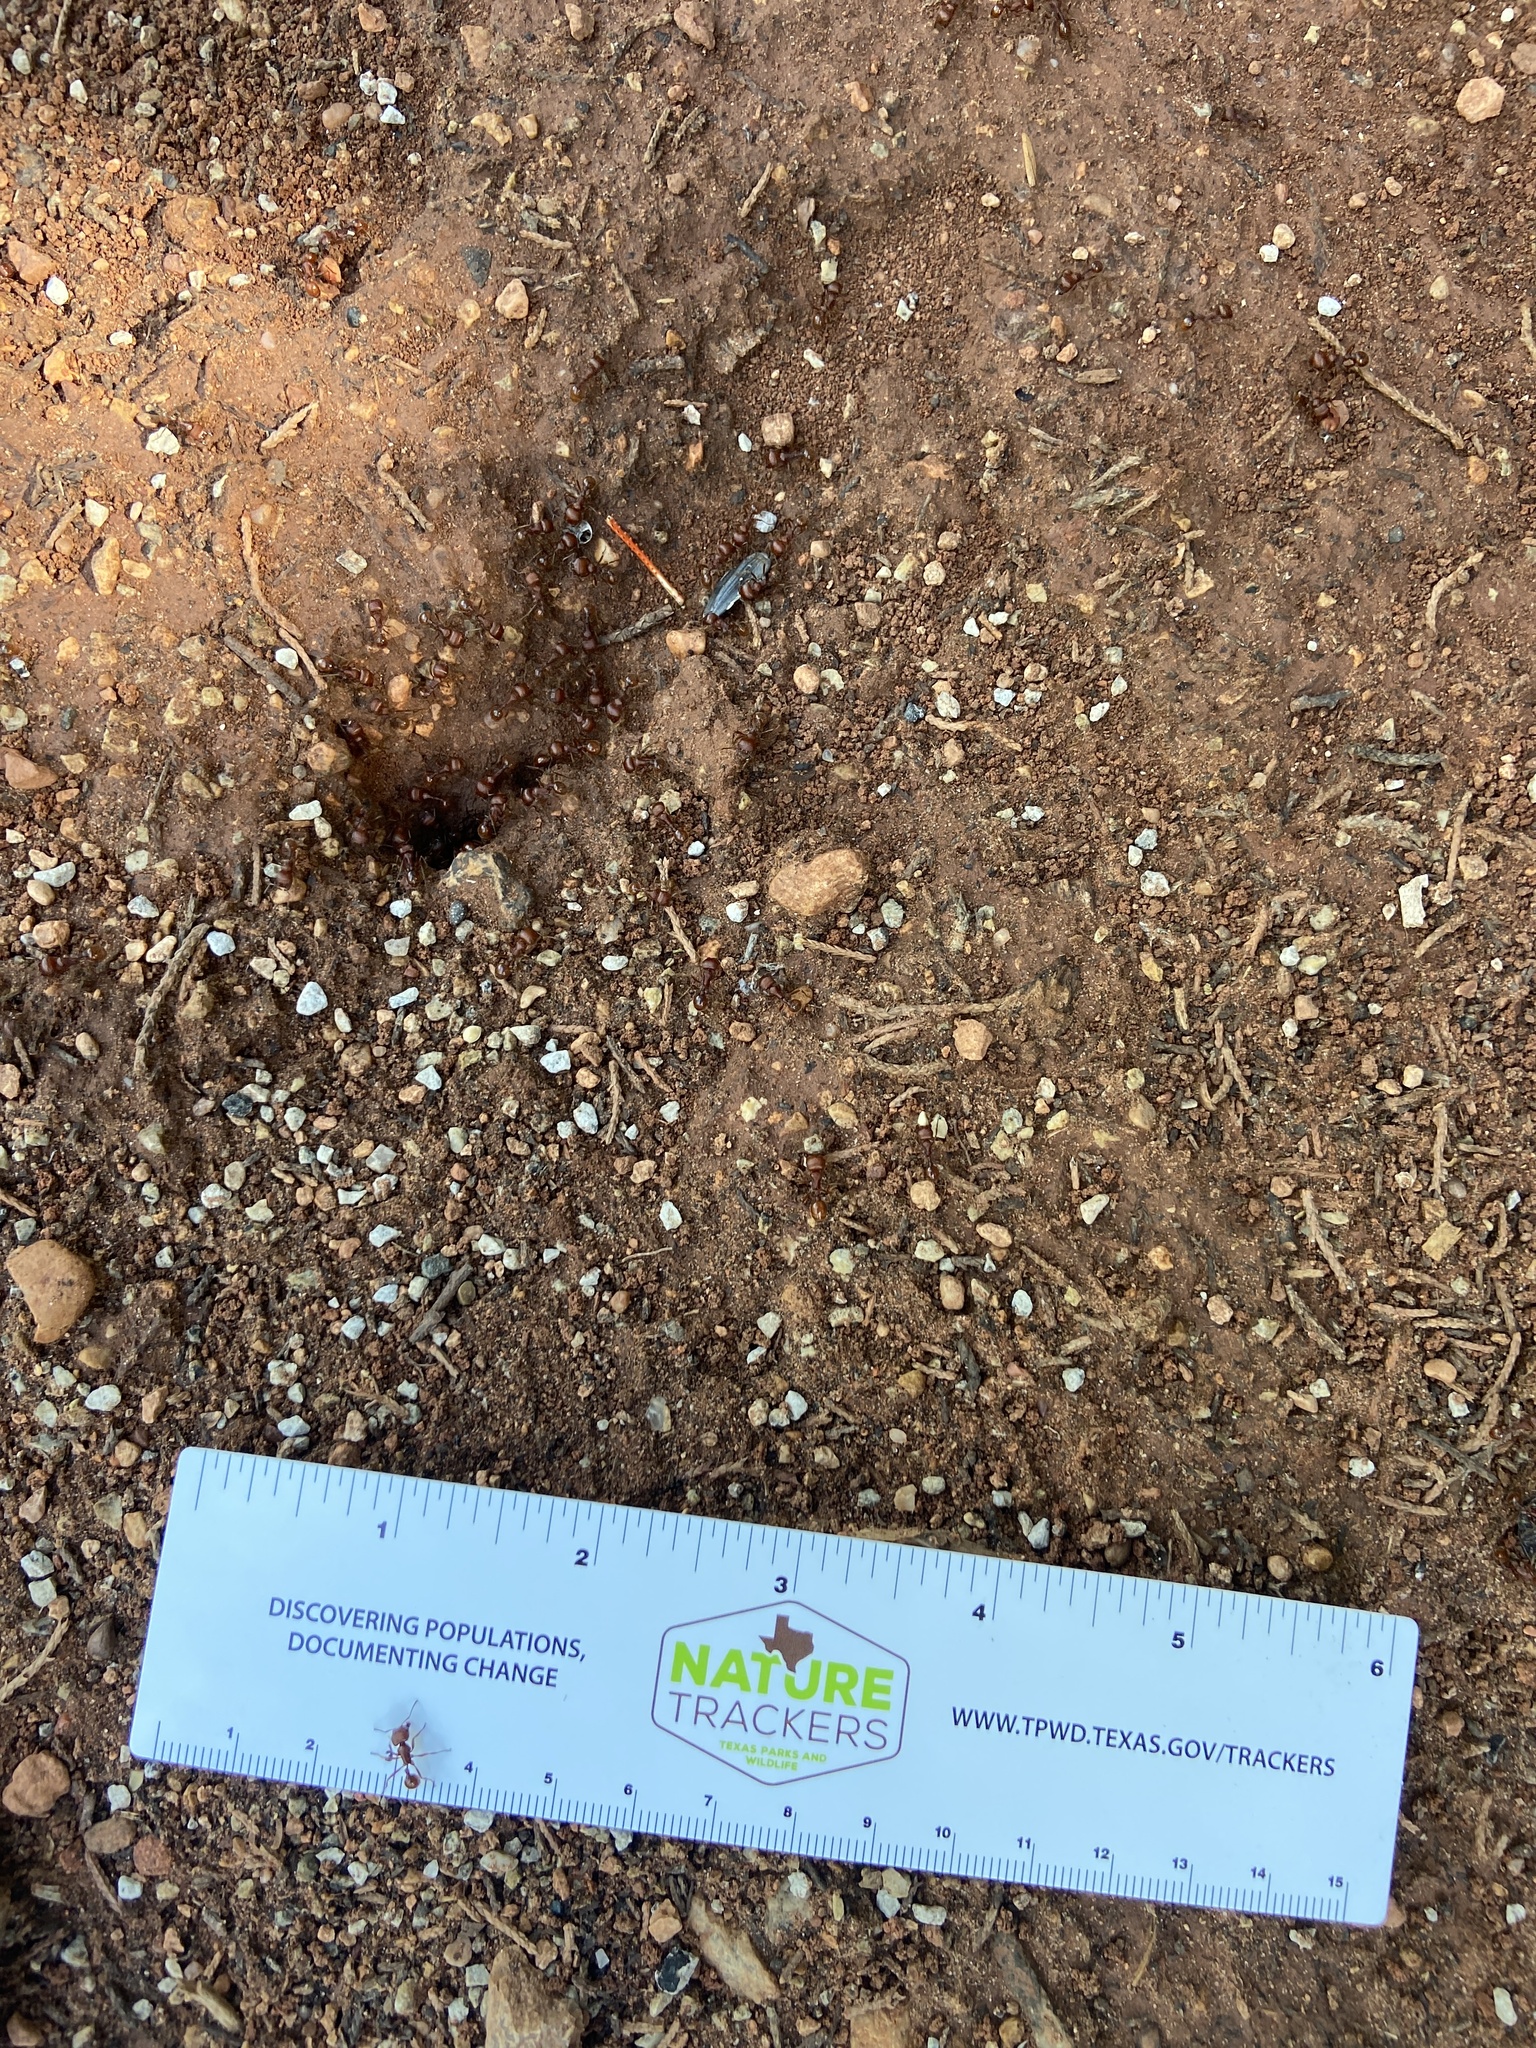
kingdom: Animalia
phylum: Arthropoda
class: Insecta
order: Hymenoptera
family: Formicidae
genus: Pogonomyrmex
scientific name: Pogonomyrmex barbatus
